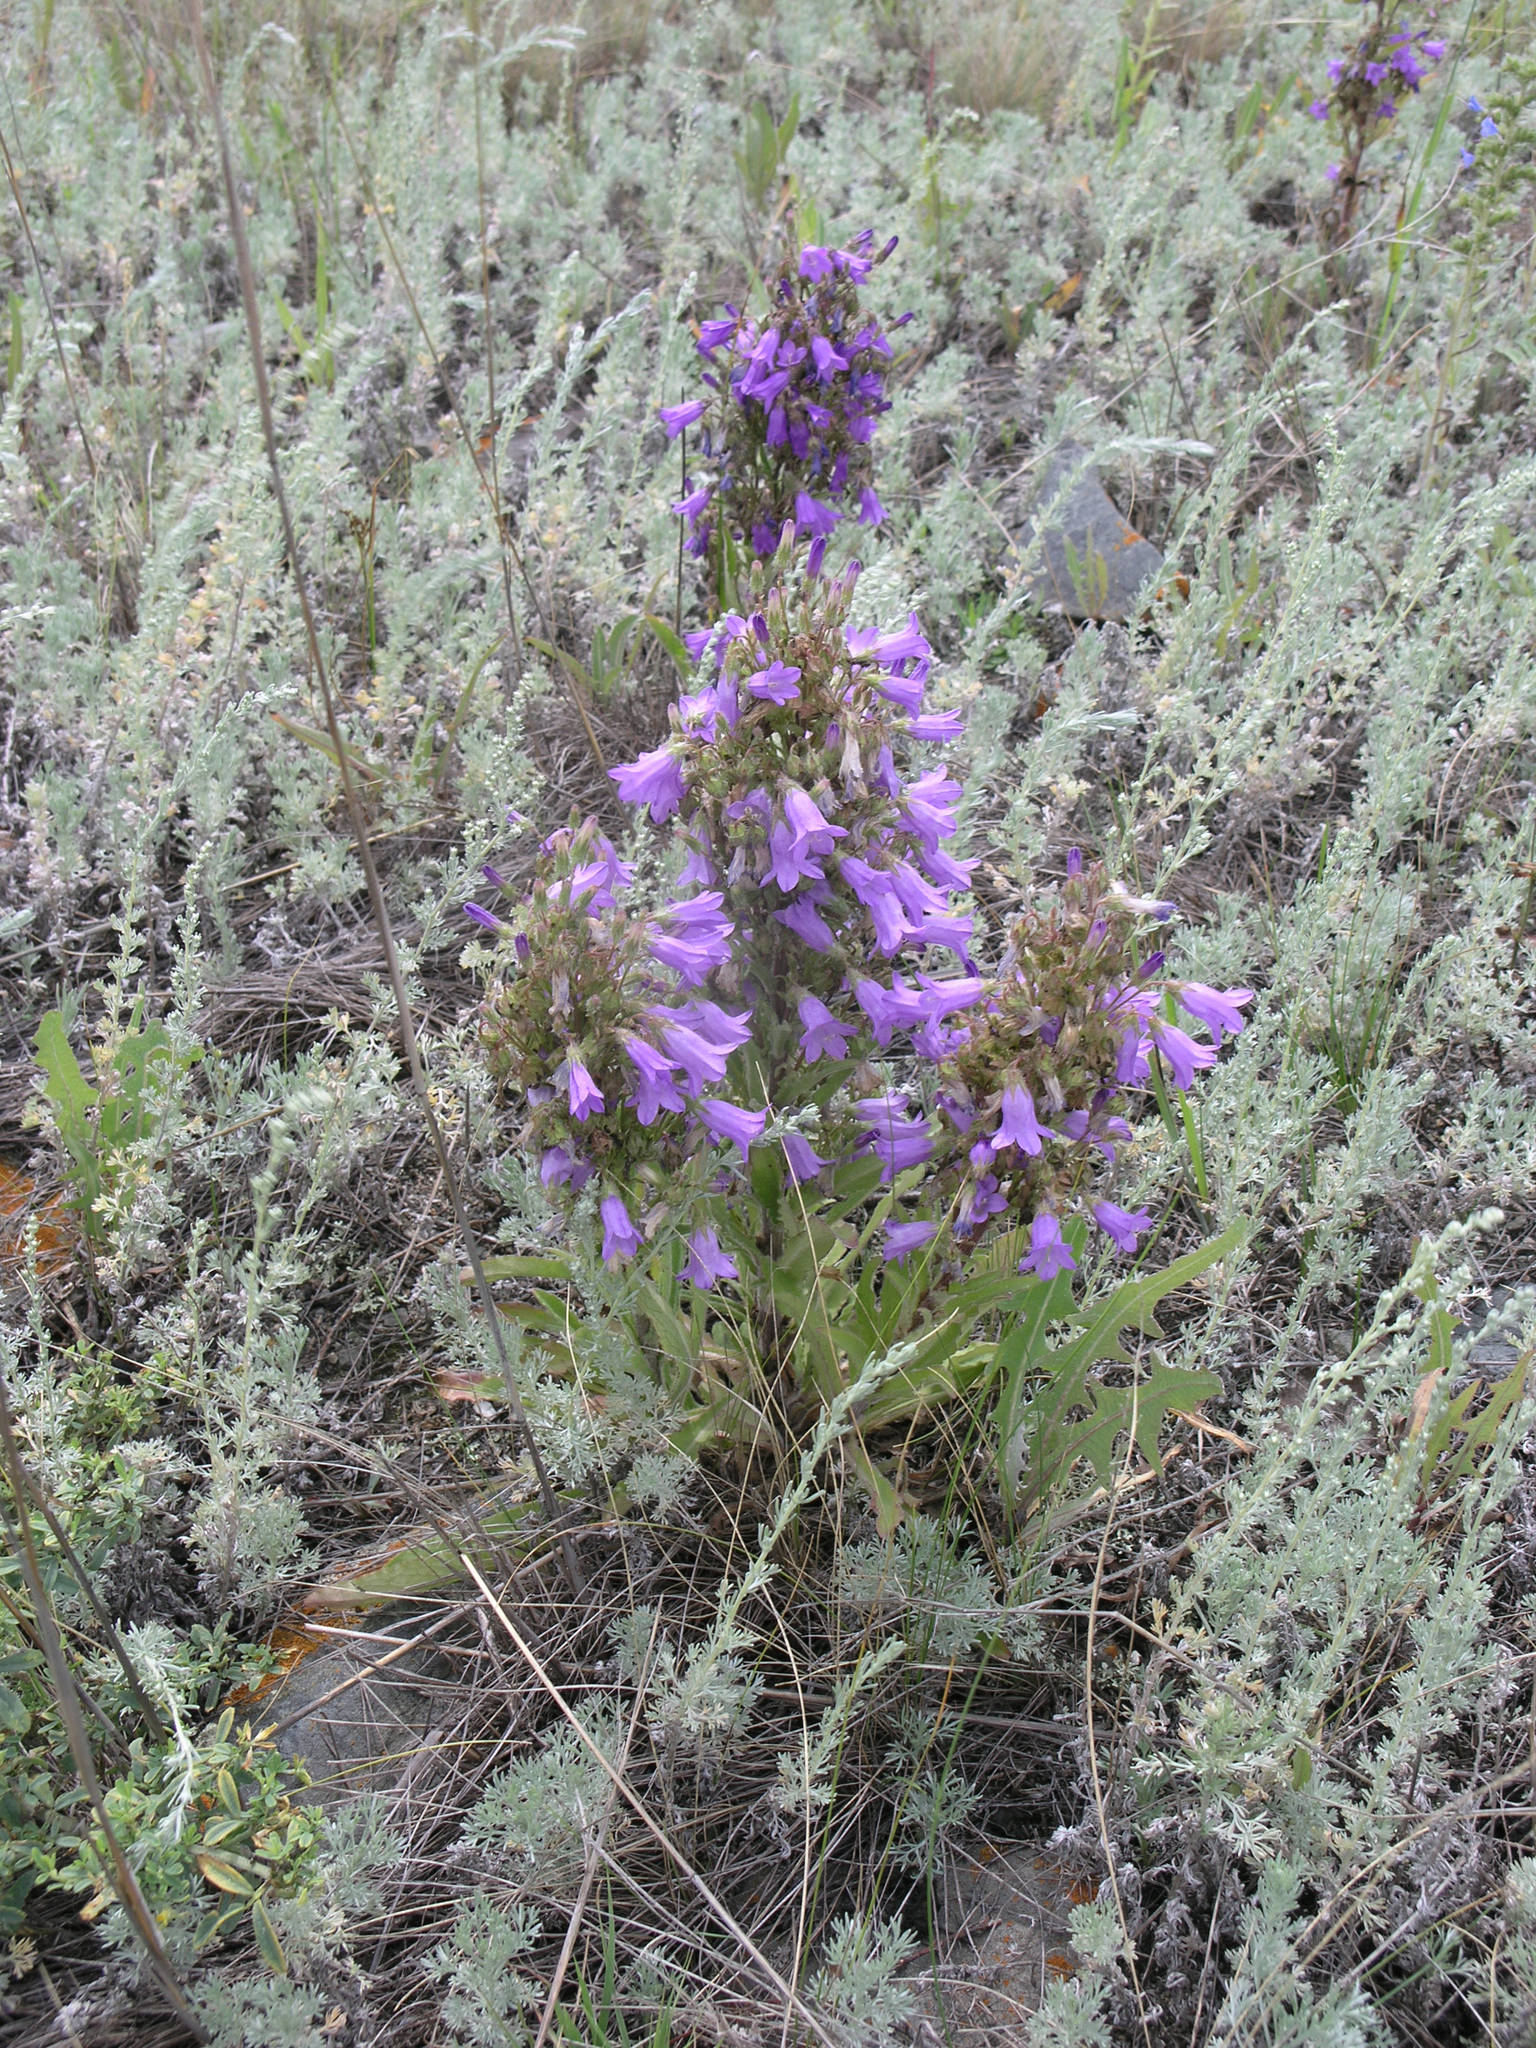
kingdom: Plantae
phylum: Tracheophyta
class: Magnoliopsida
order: Asterales
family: Campanulaceae
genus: Campanula
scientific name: Campanula sibirica
